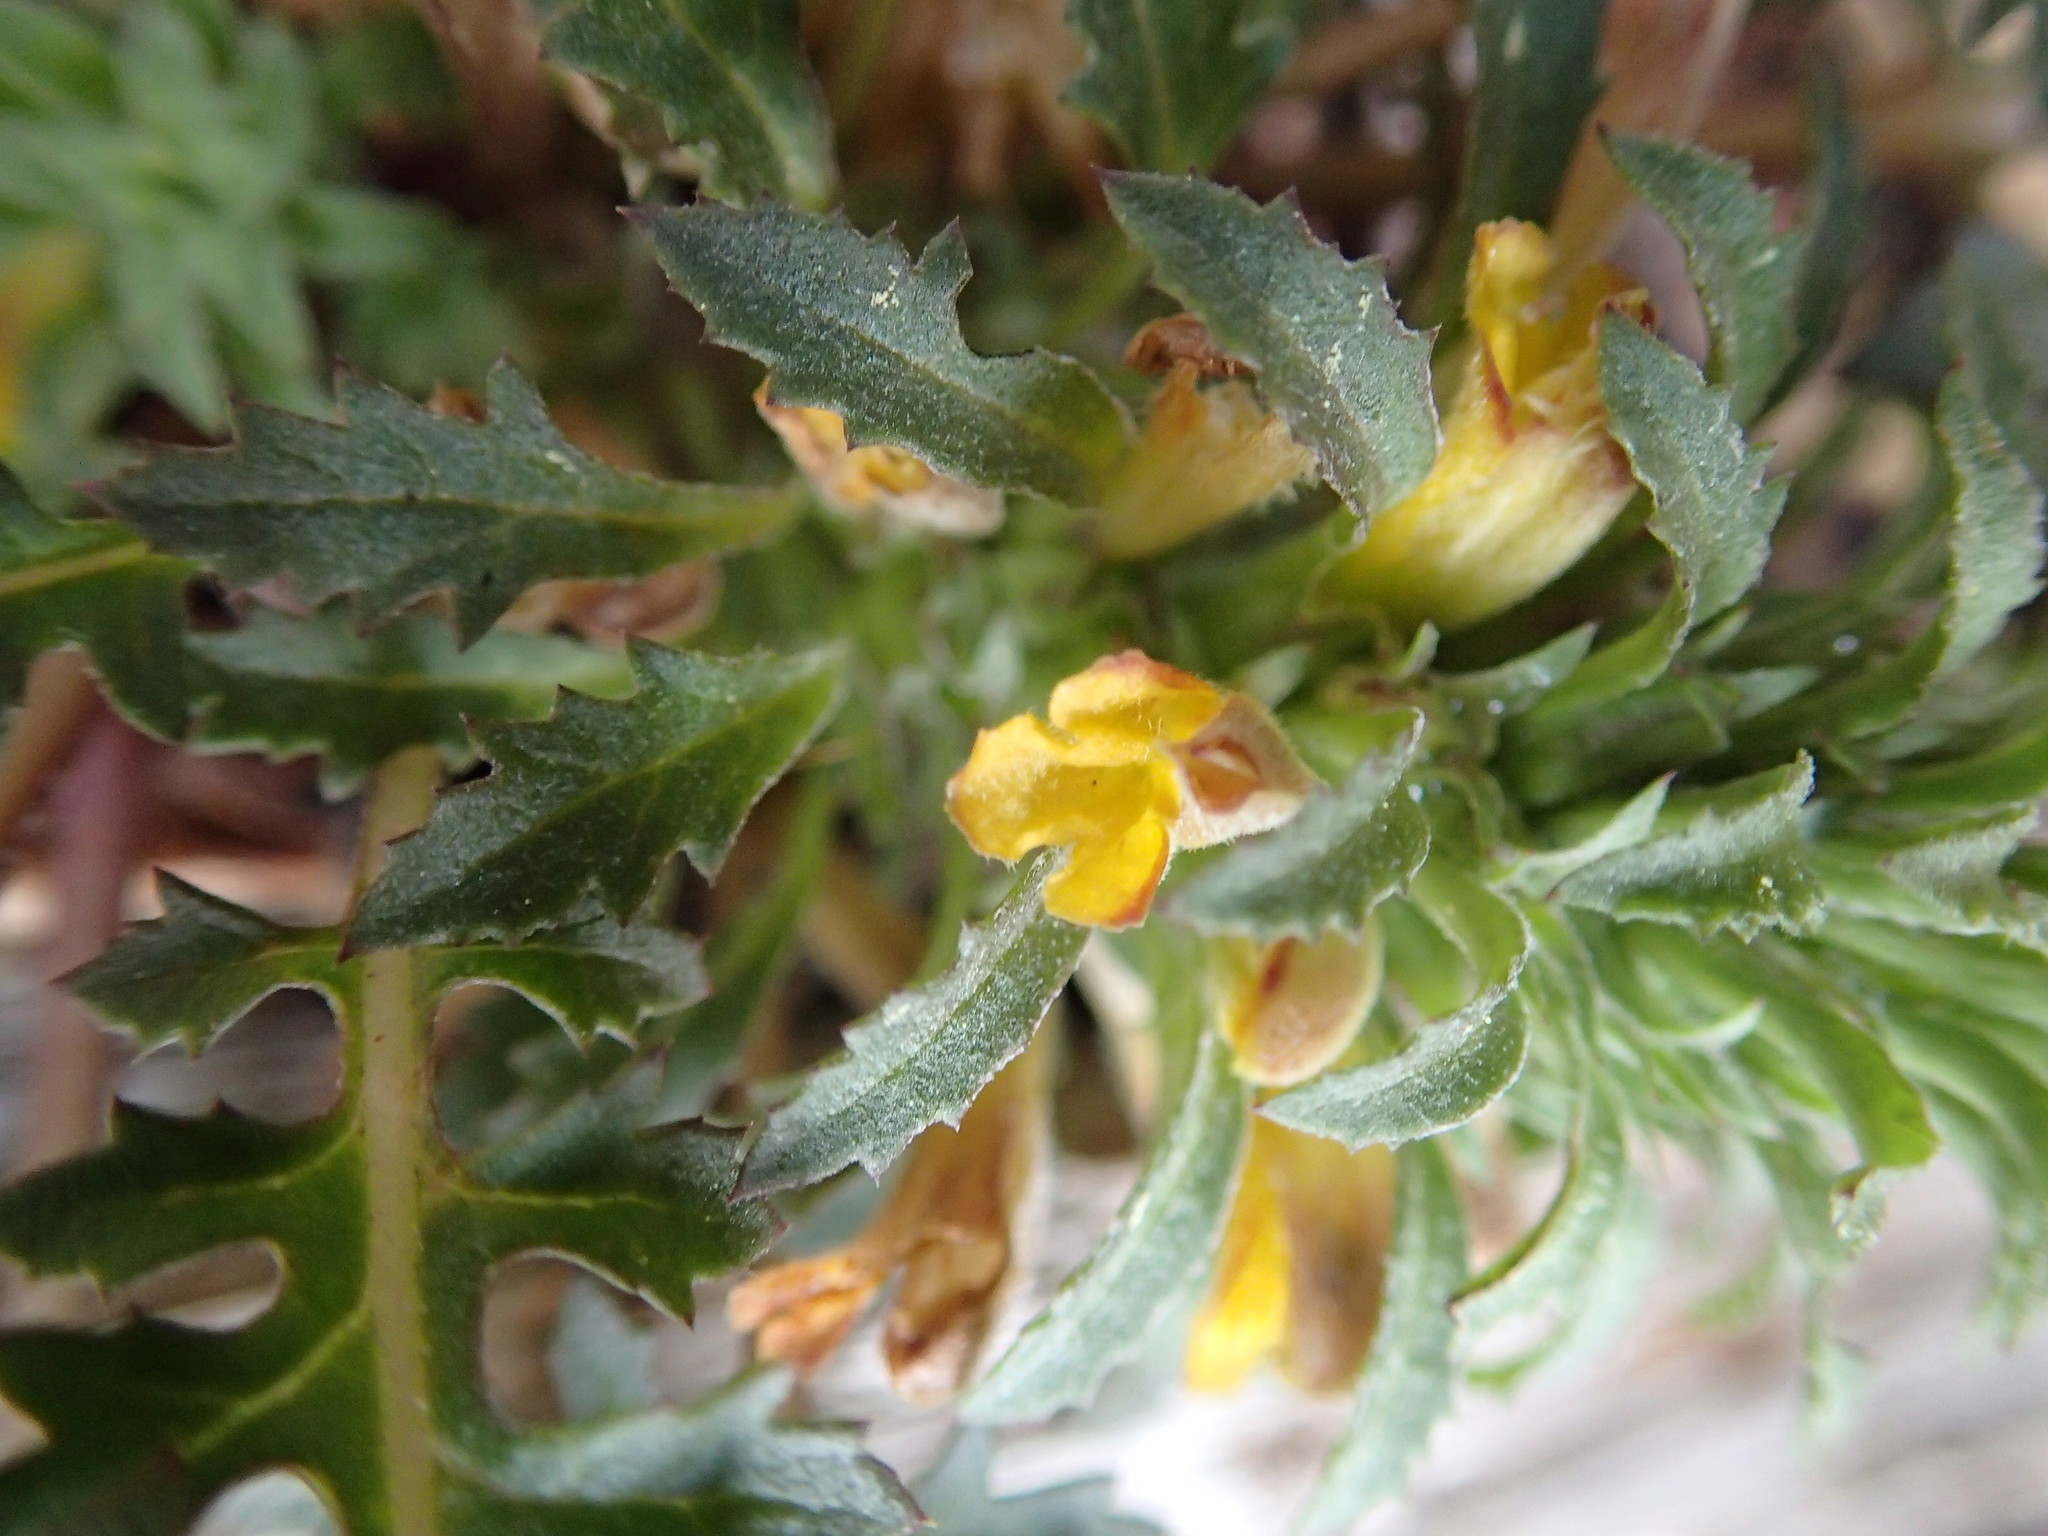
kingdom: Plantae
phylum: Tracheophyta
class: Magnoliopsida
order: Lamiales
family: Orobanchaceae
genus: Pedicularis
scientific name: Pedicularis semibarbata
